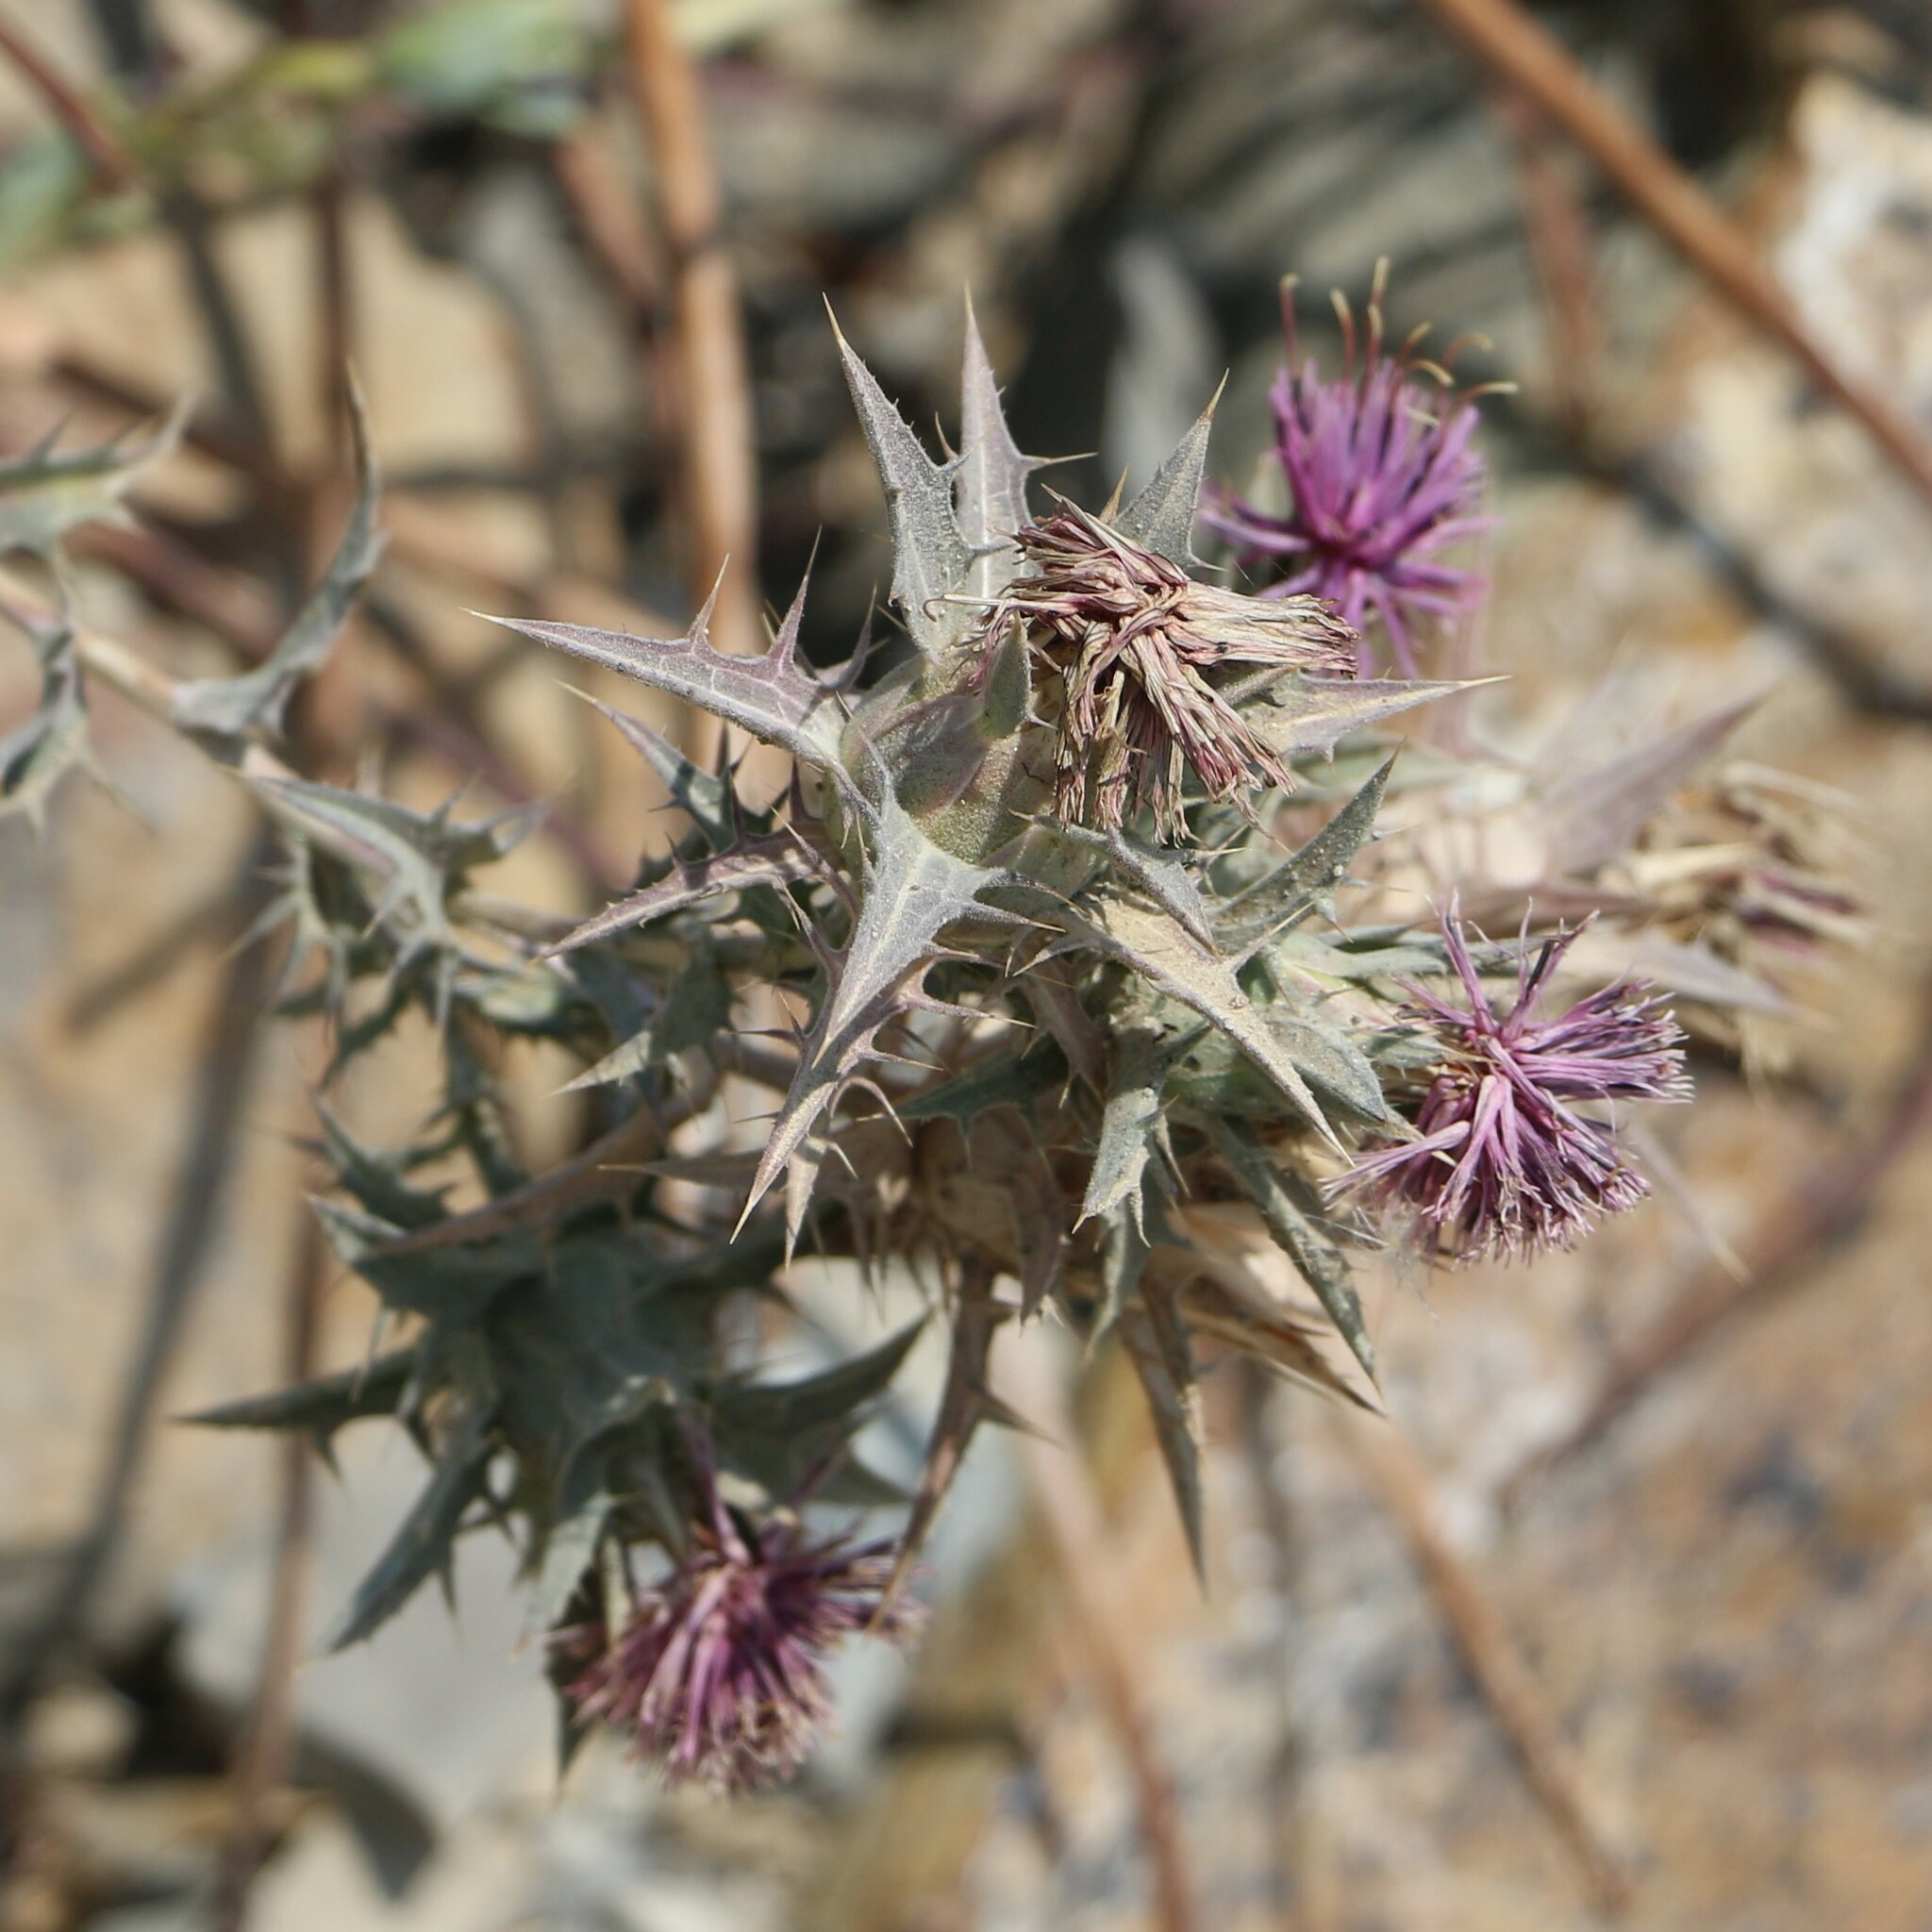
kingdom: Plantae
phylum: Tracheophyta
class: Magnoliopsida
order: Asterales
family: Asteraceae
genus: Carthamus
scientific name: Carthamus glaucus
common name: Mediterranean thistle
